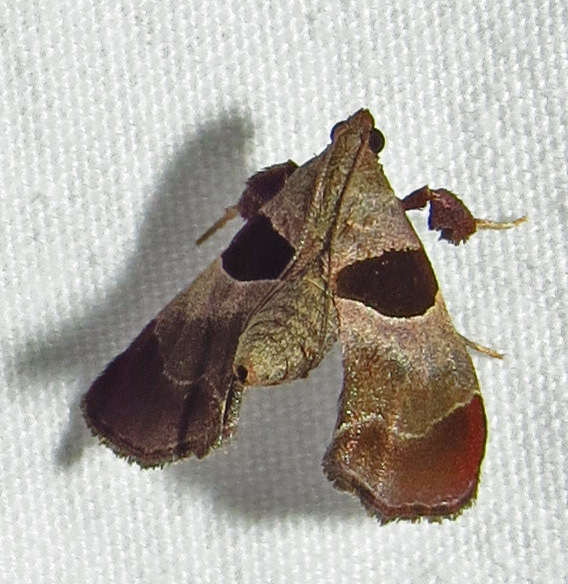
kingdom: Animalia
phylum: Arthropoda
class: Insecta
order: Lepidoptera
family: Pyralidae
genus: Tosale
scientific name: Tosale oviplagalis
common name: Dimorphic tosale moth
